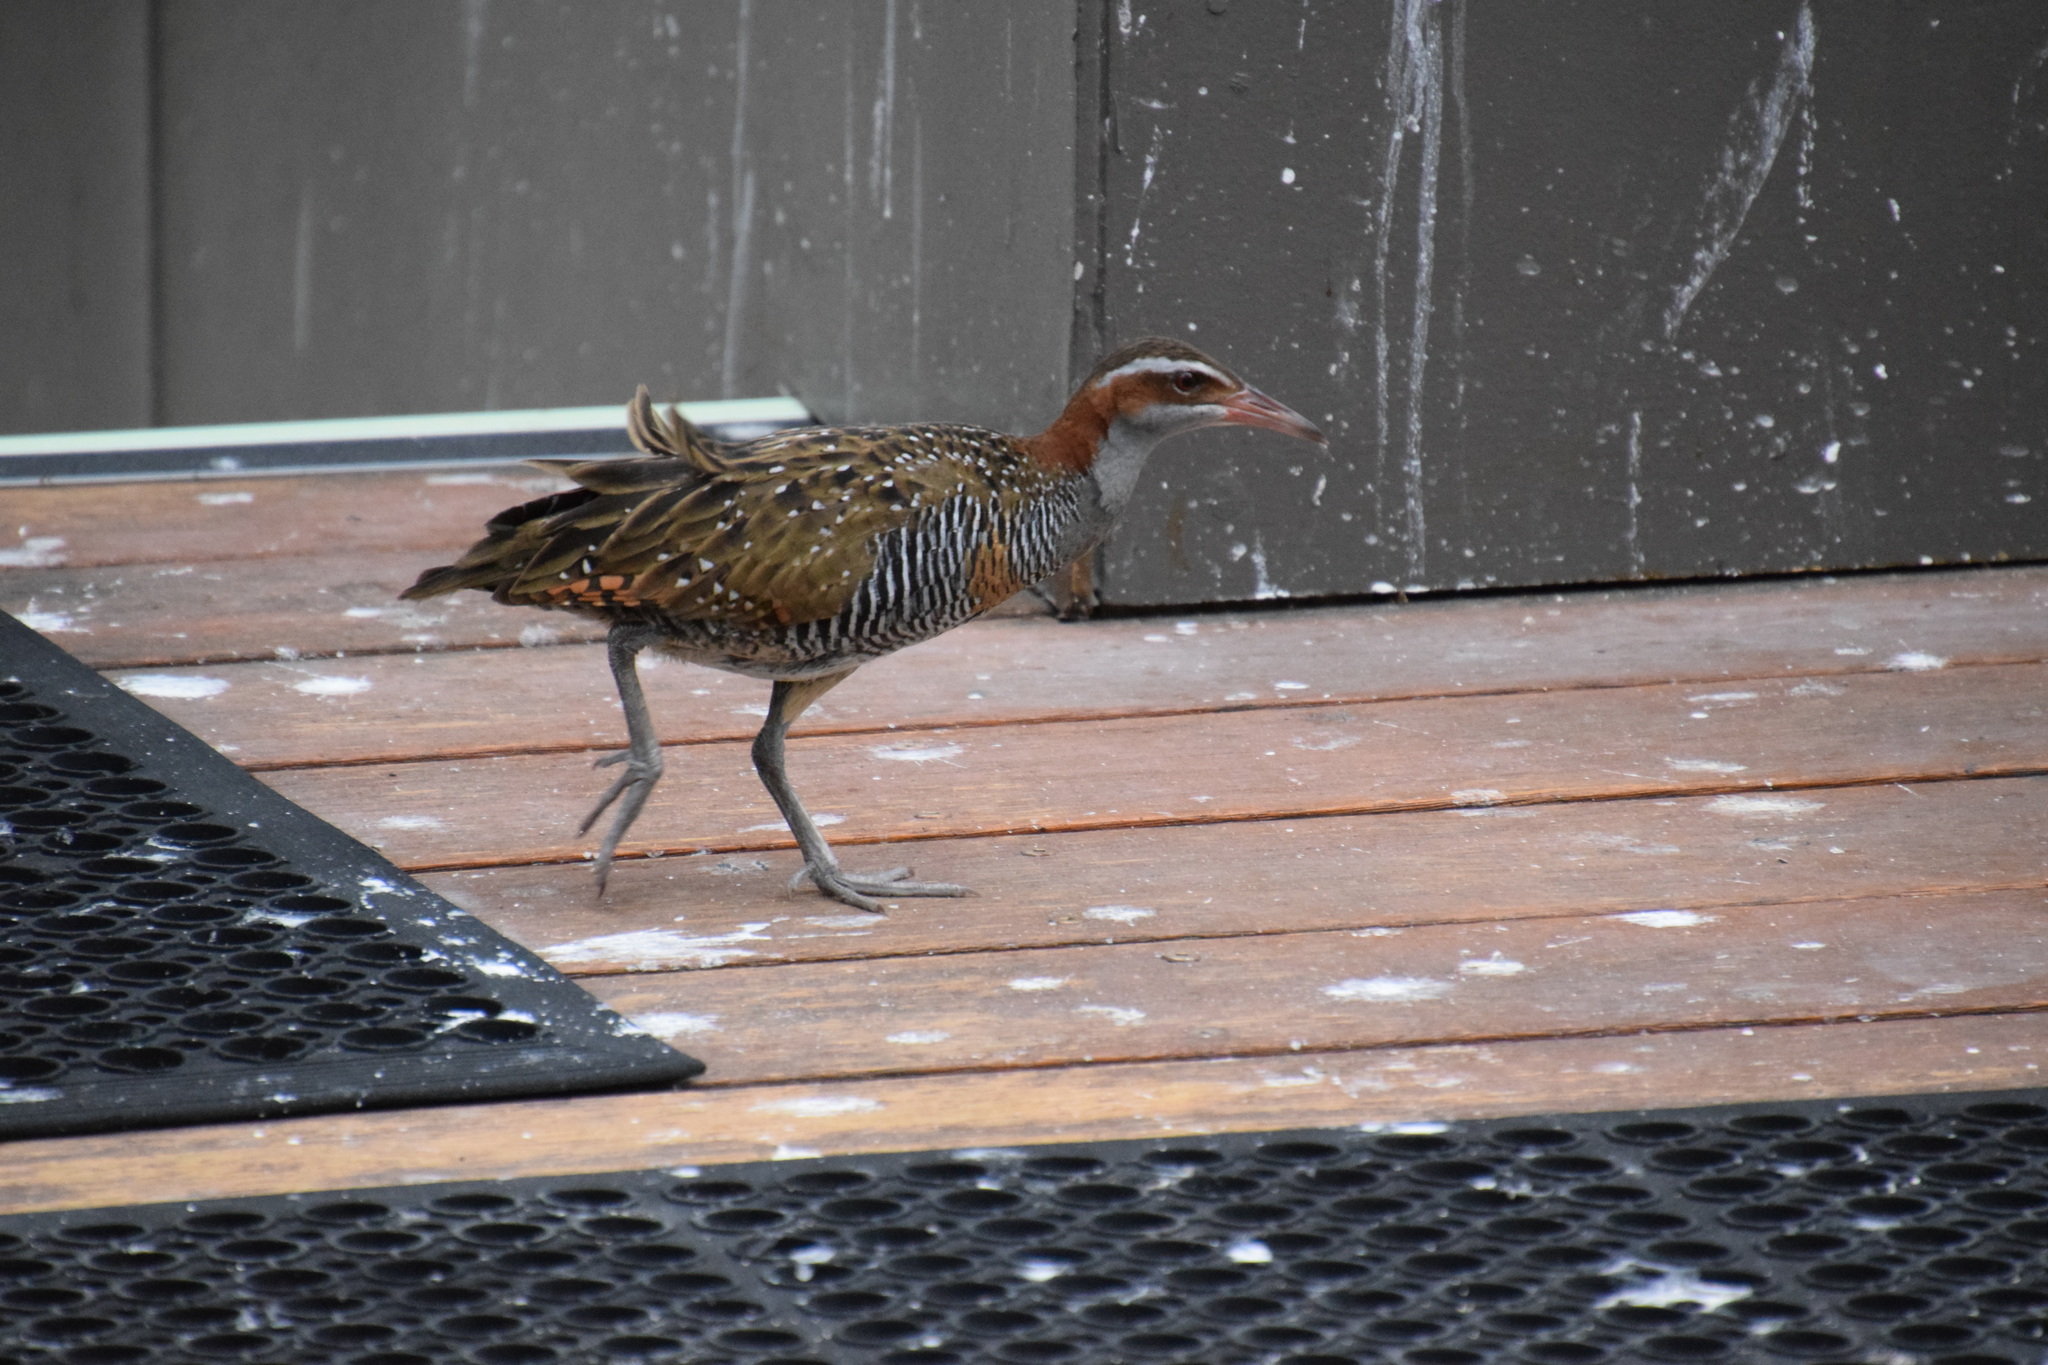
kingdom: Animalia
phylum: Chordata
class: Aves
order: Gruiformes
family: Rallidae
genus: Gallirallus
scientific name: Gallirallus philippensis
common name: Buff-banded rail
